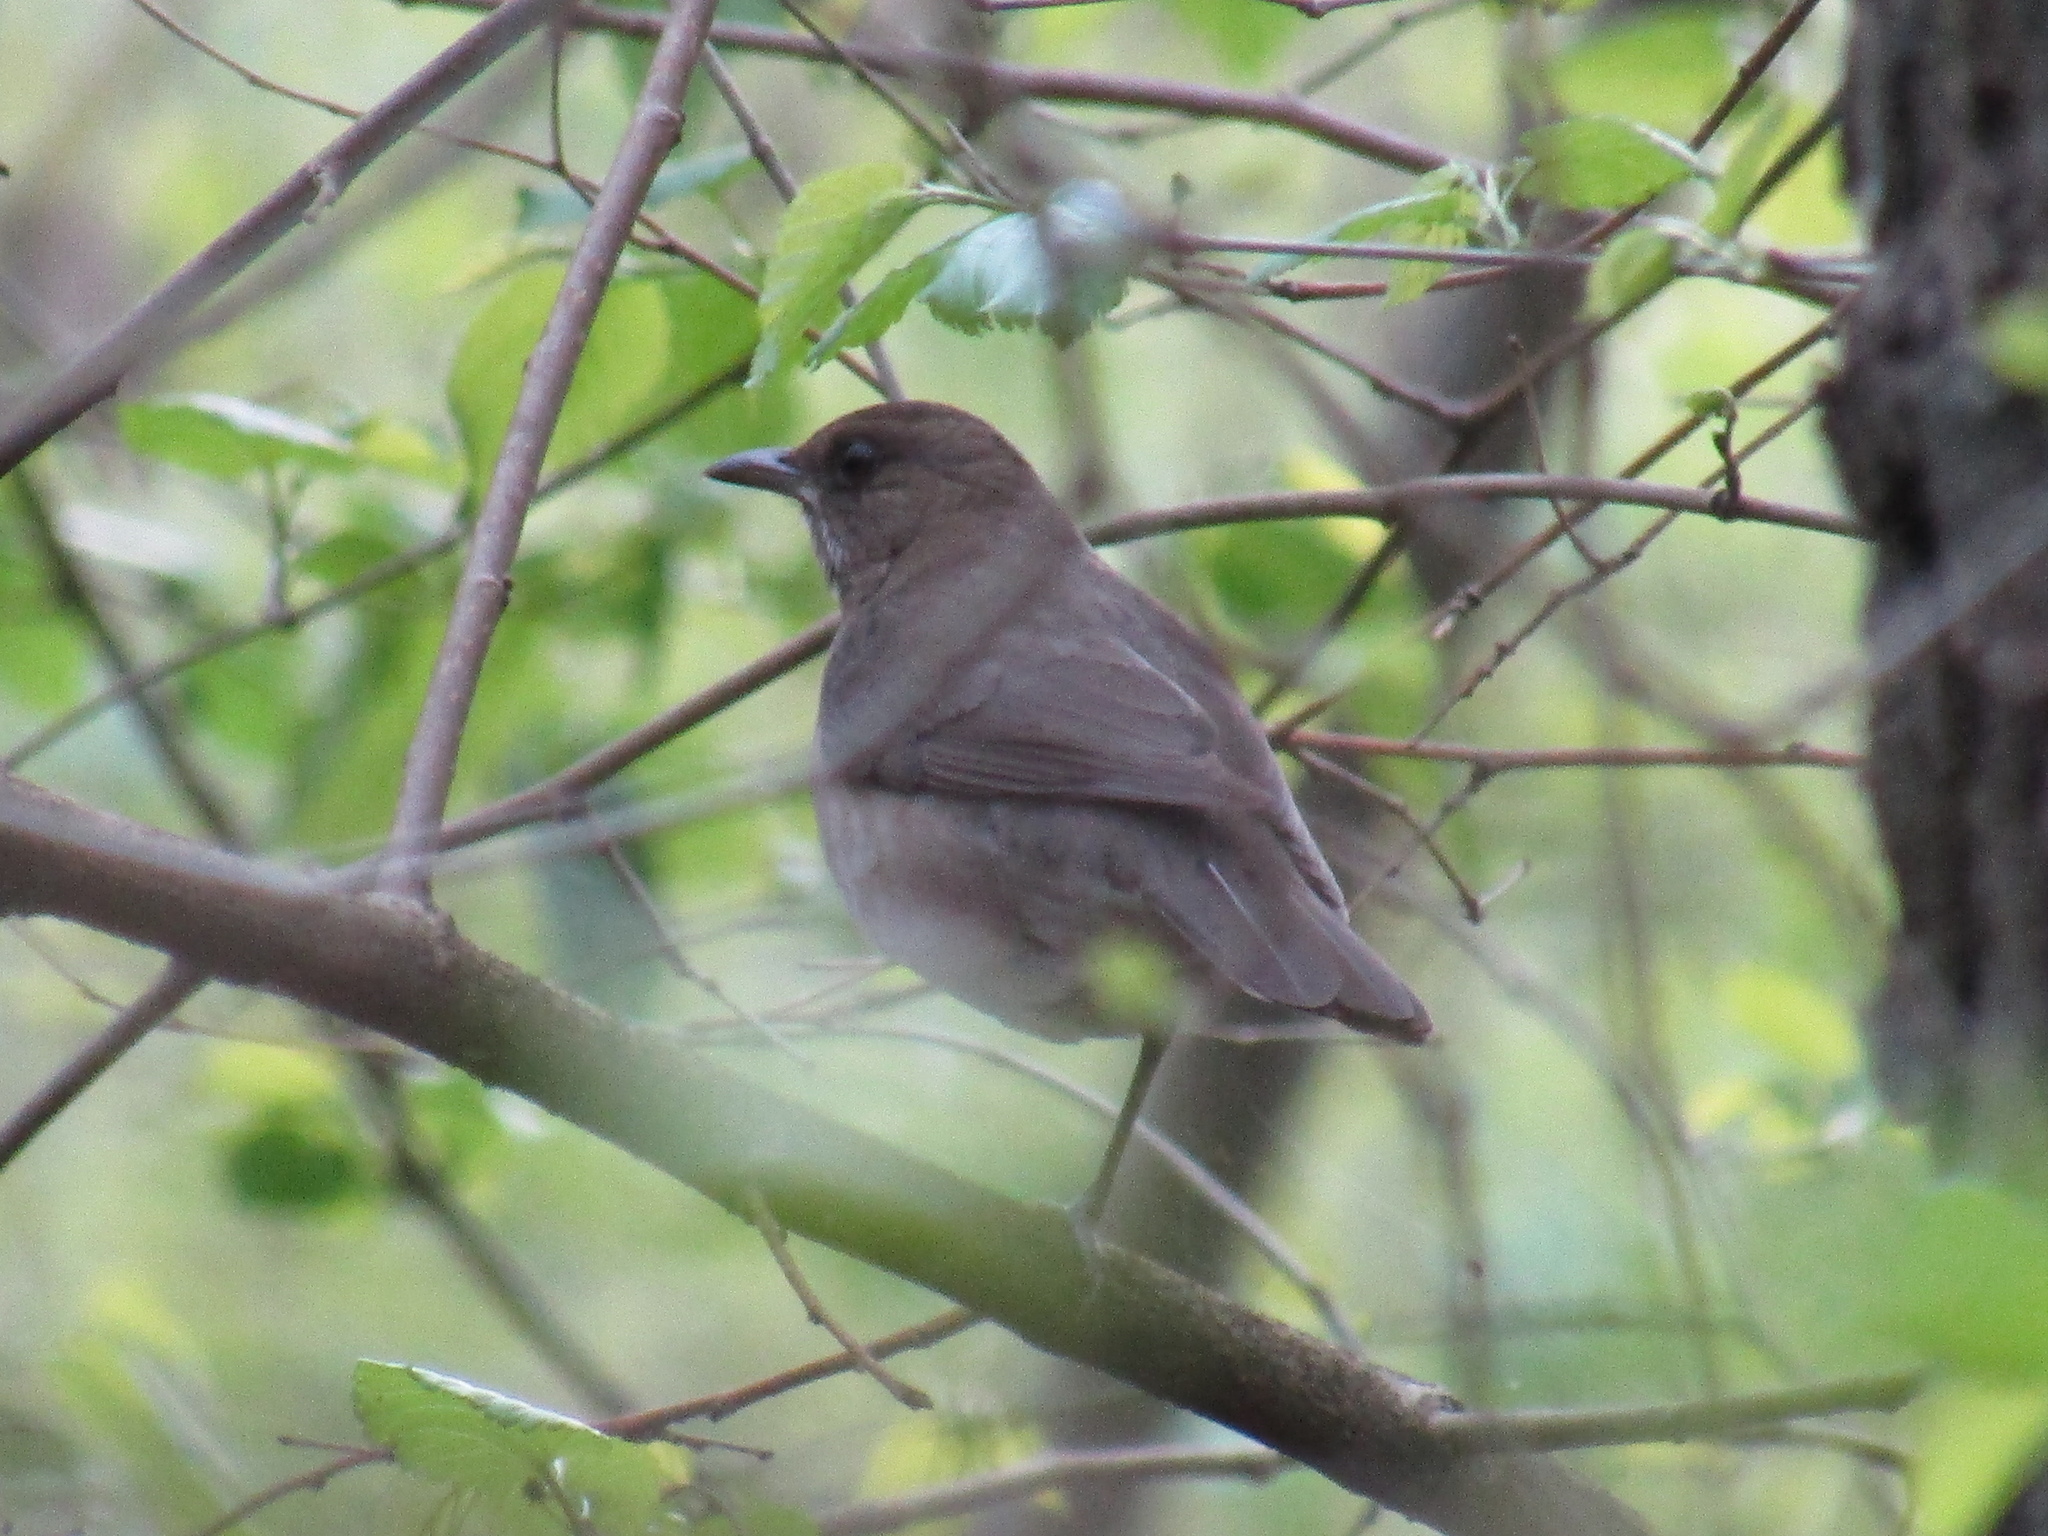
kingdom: Animalia
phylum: Chordata
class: Aves
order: Passeriformes
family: Turdidae
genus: Turdus
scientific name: Turdus amaurochalinus
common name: Creamy-bellied thrush
